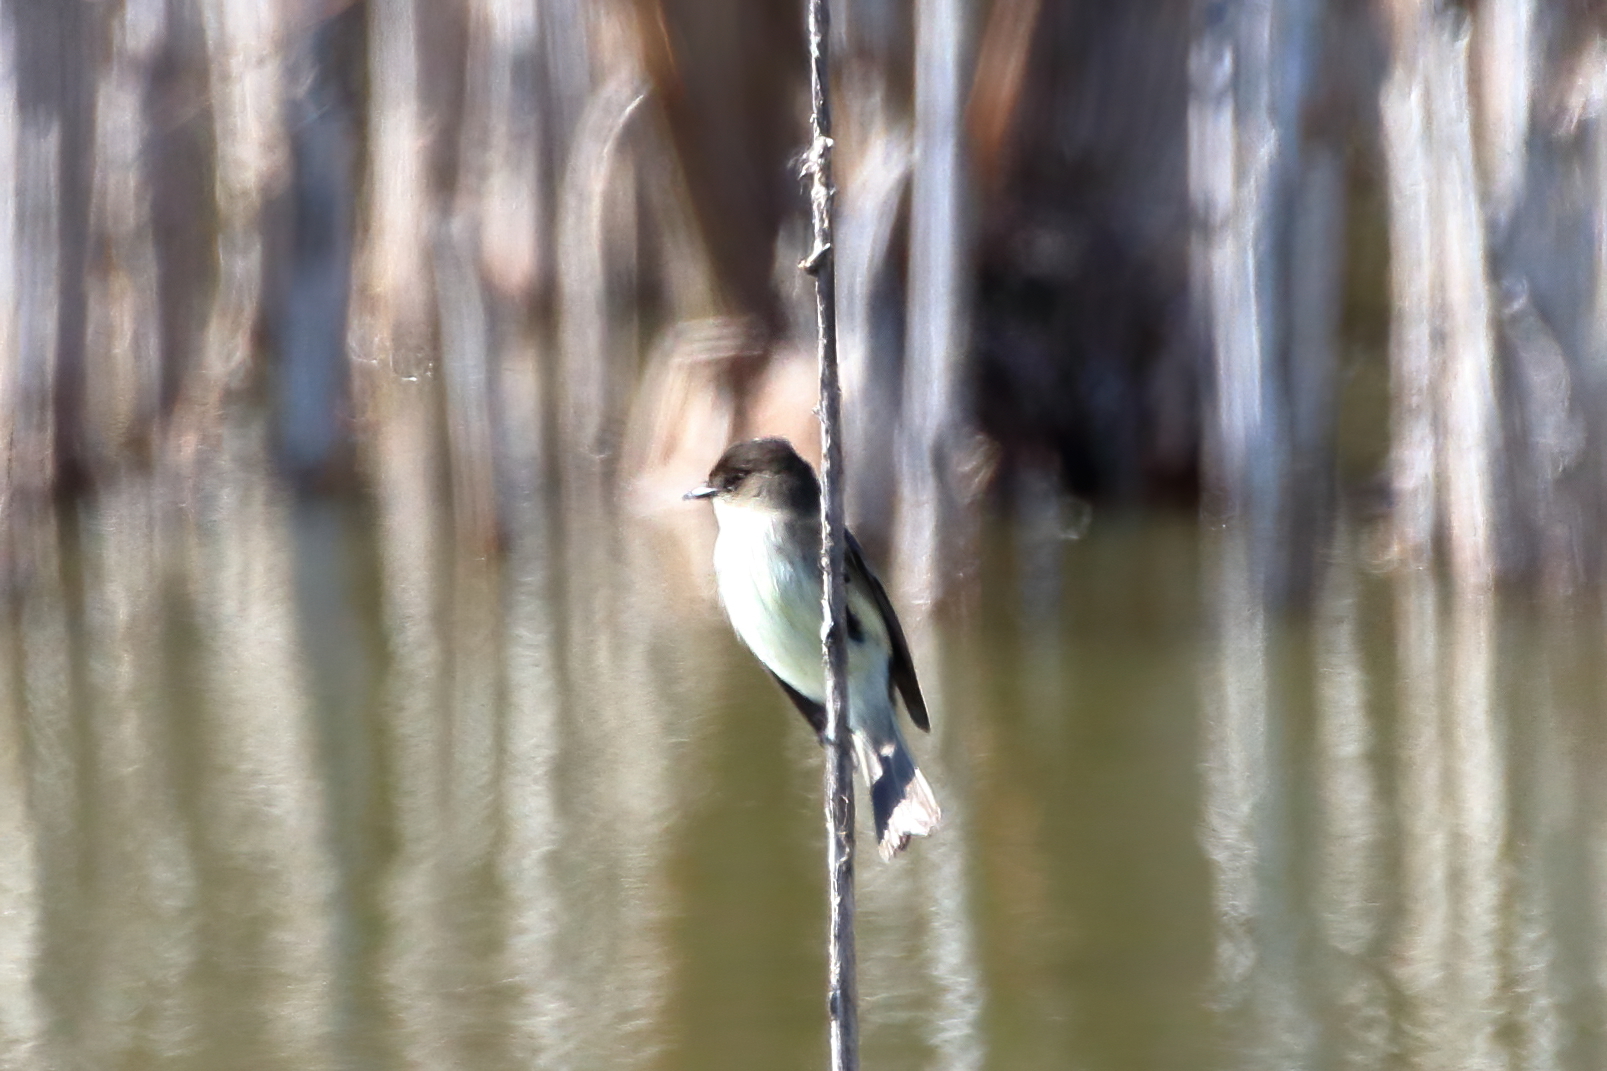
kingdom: Animalia
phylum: Chordata
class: Aves
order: Passeriformes
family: Tyrannidae
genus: Sayornis
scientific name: Sayornis phoebe
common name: Eastern phoebe
